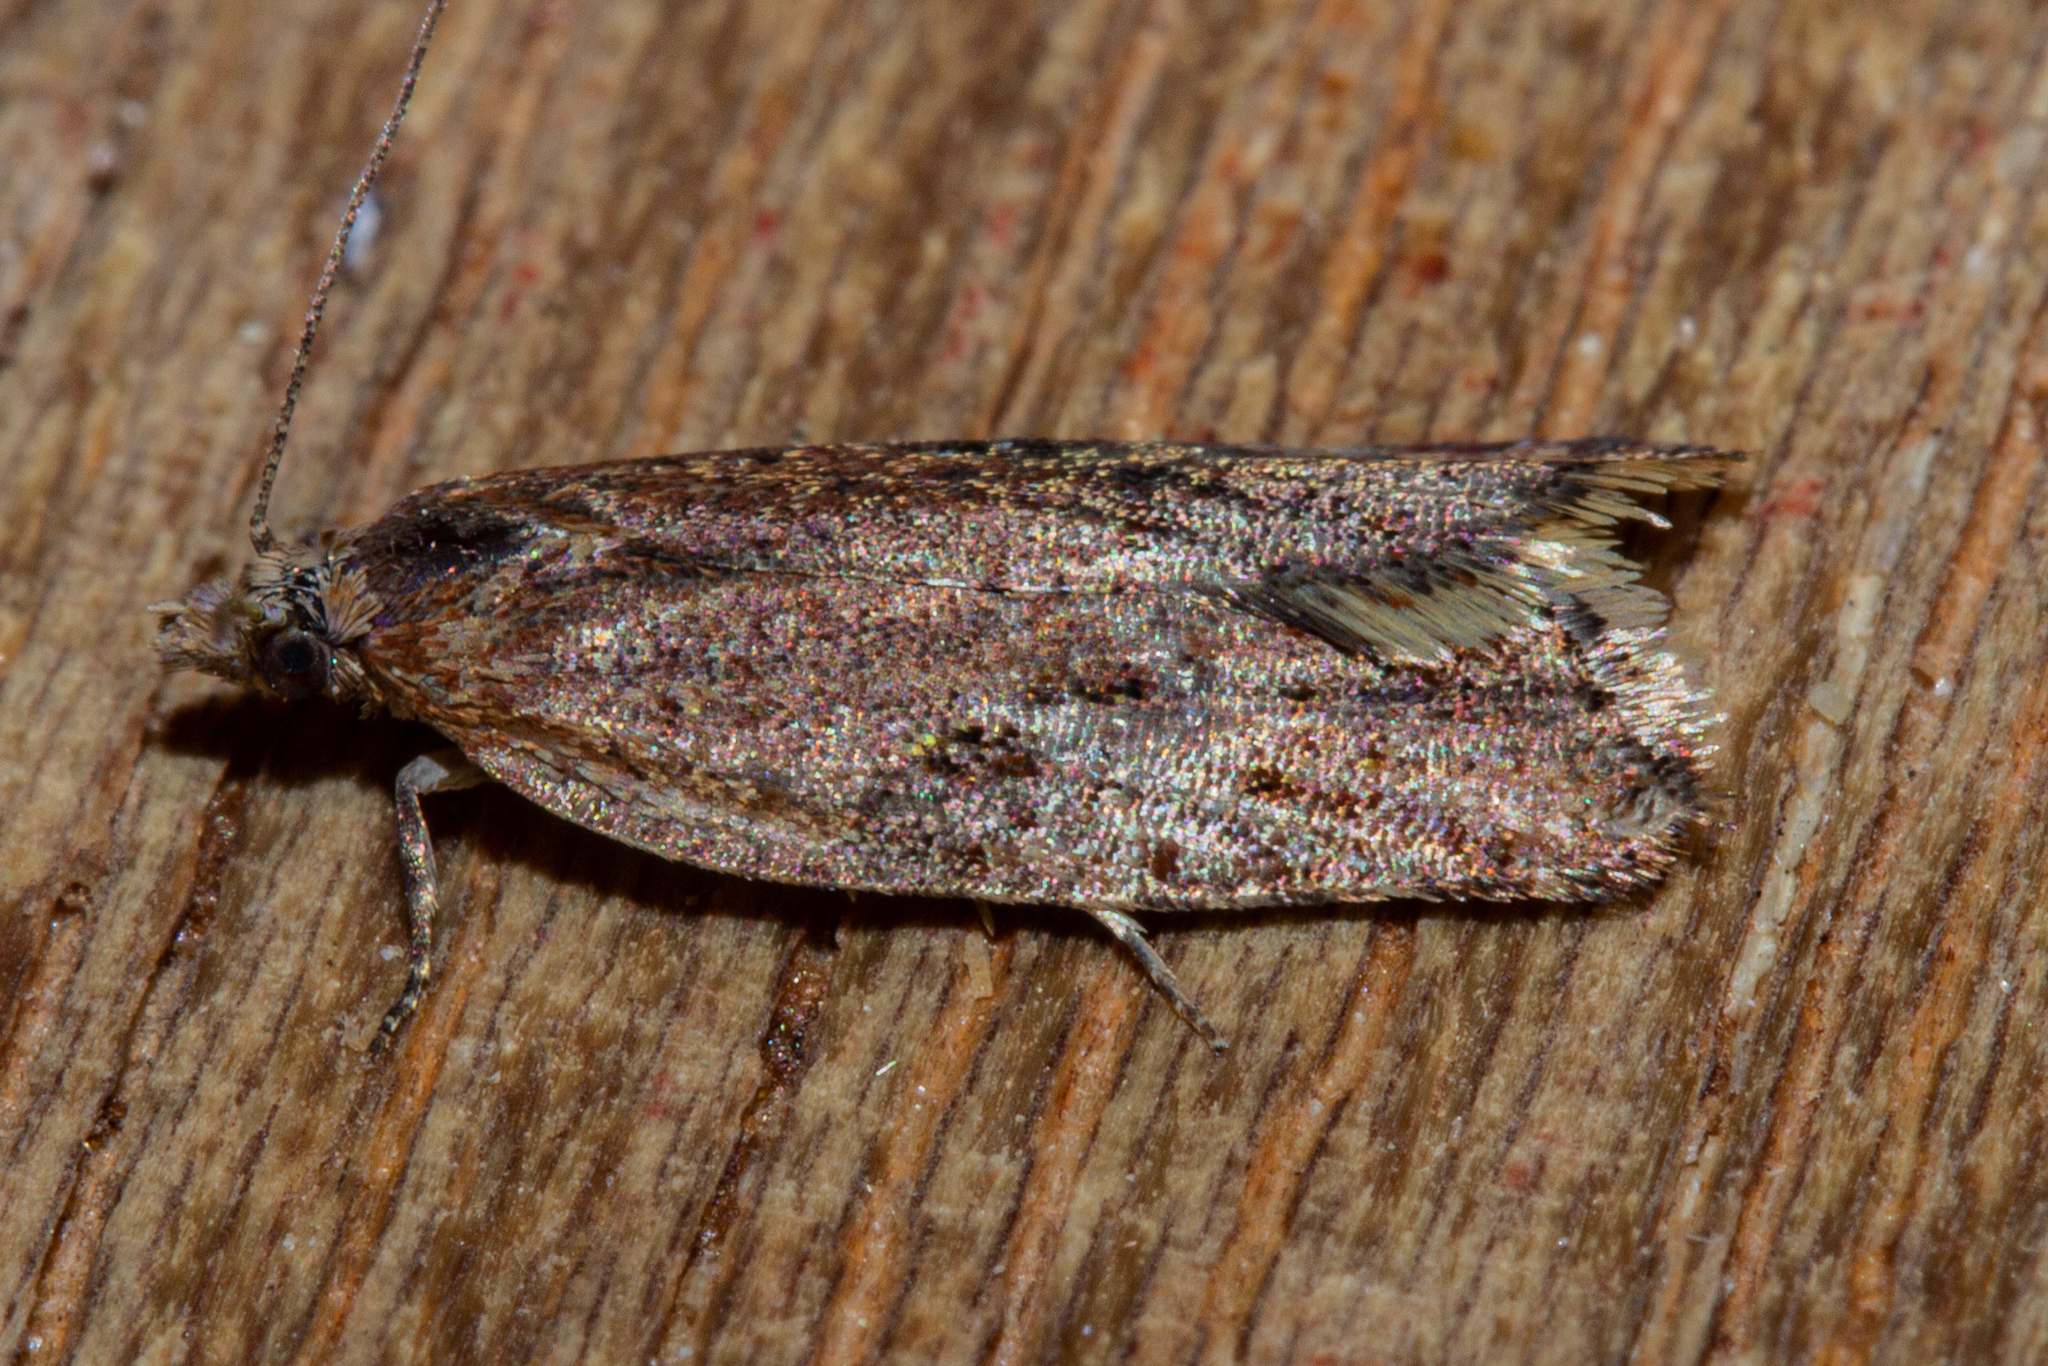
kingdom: Animalia
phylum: Arthropoda
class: Insecta
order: Lepidoptera
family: Tortricidae
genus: Capua
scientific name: Capua semiferana
